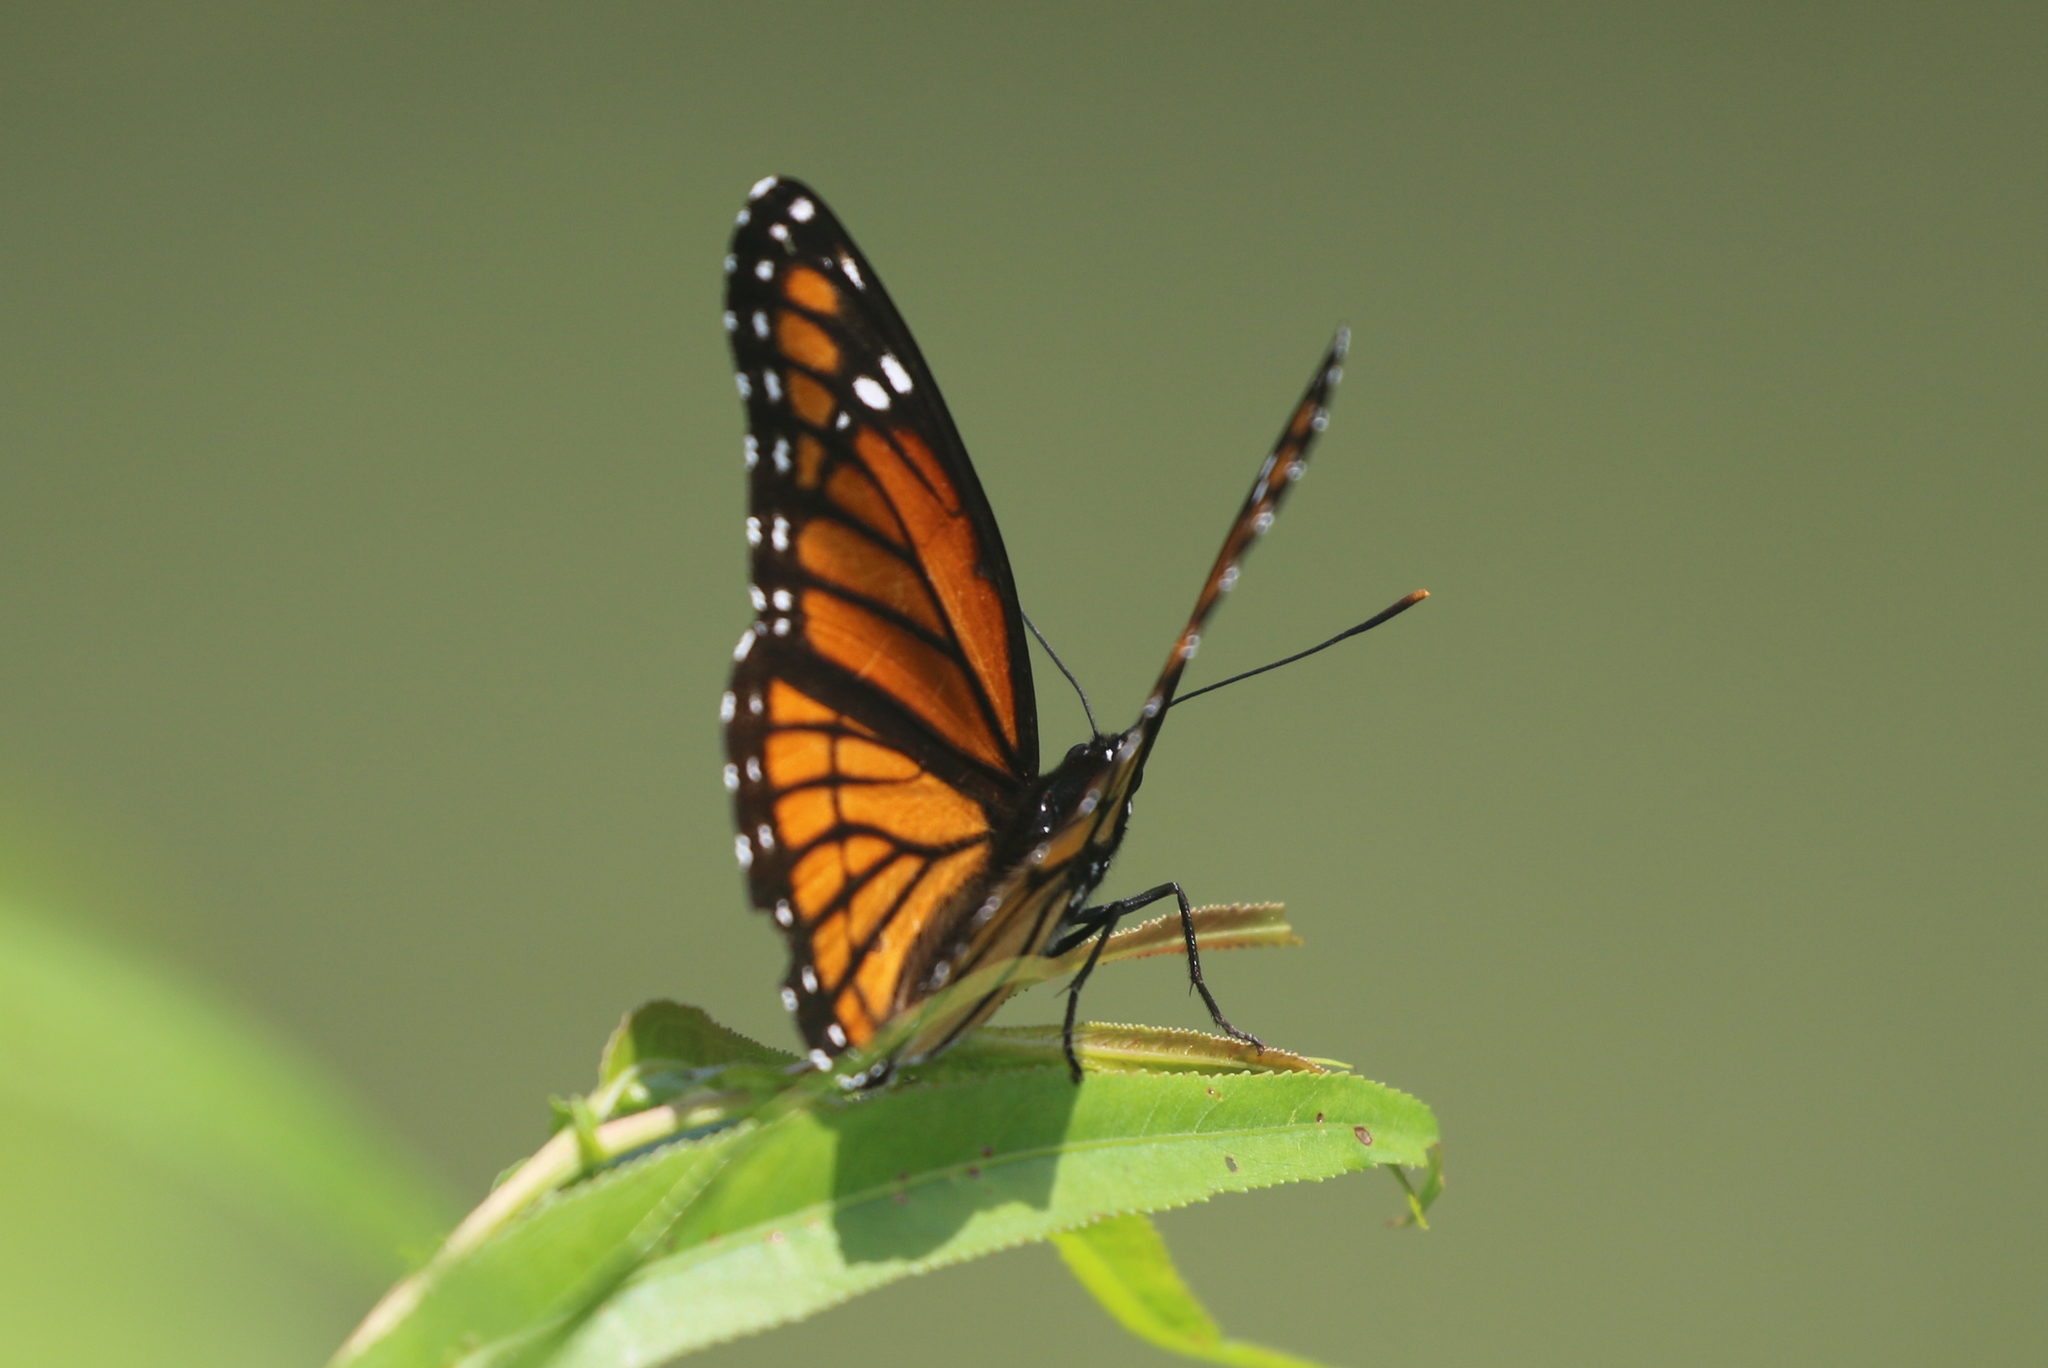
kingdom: Animalia
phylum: Arthropoda
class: Insecta
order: Lepidoptera
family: Nymphalidae
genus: Limenitis
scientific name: Limenitis archippus
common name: Viceroy
